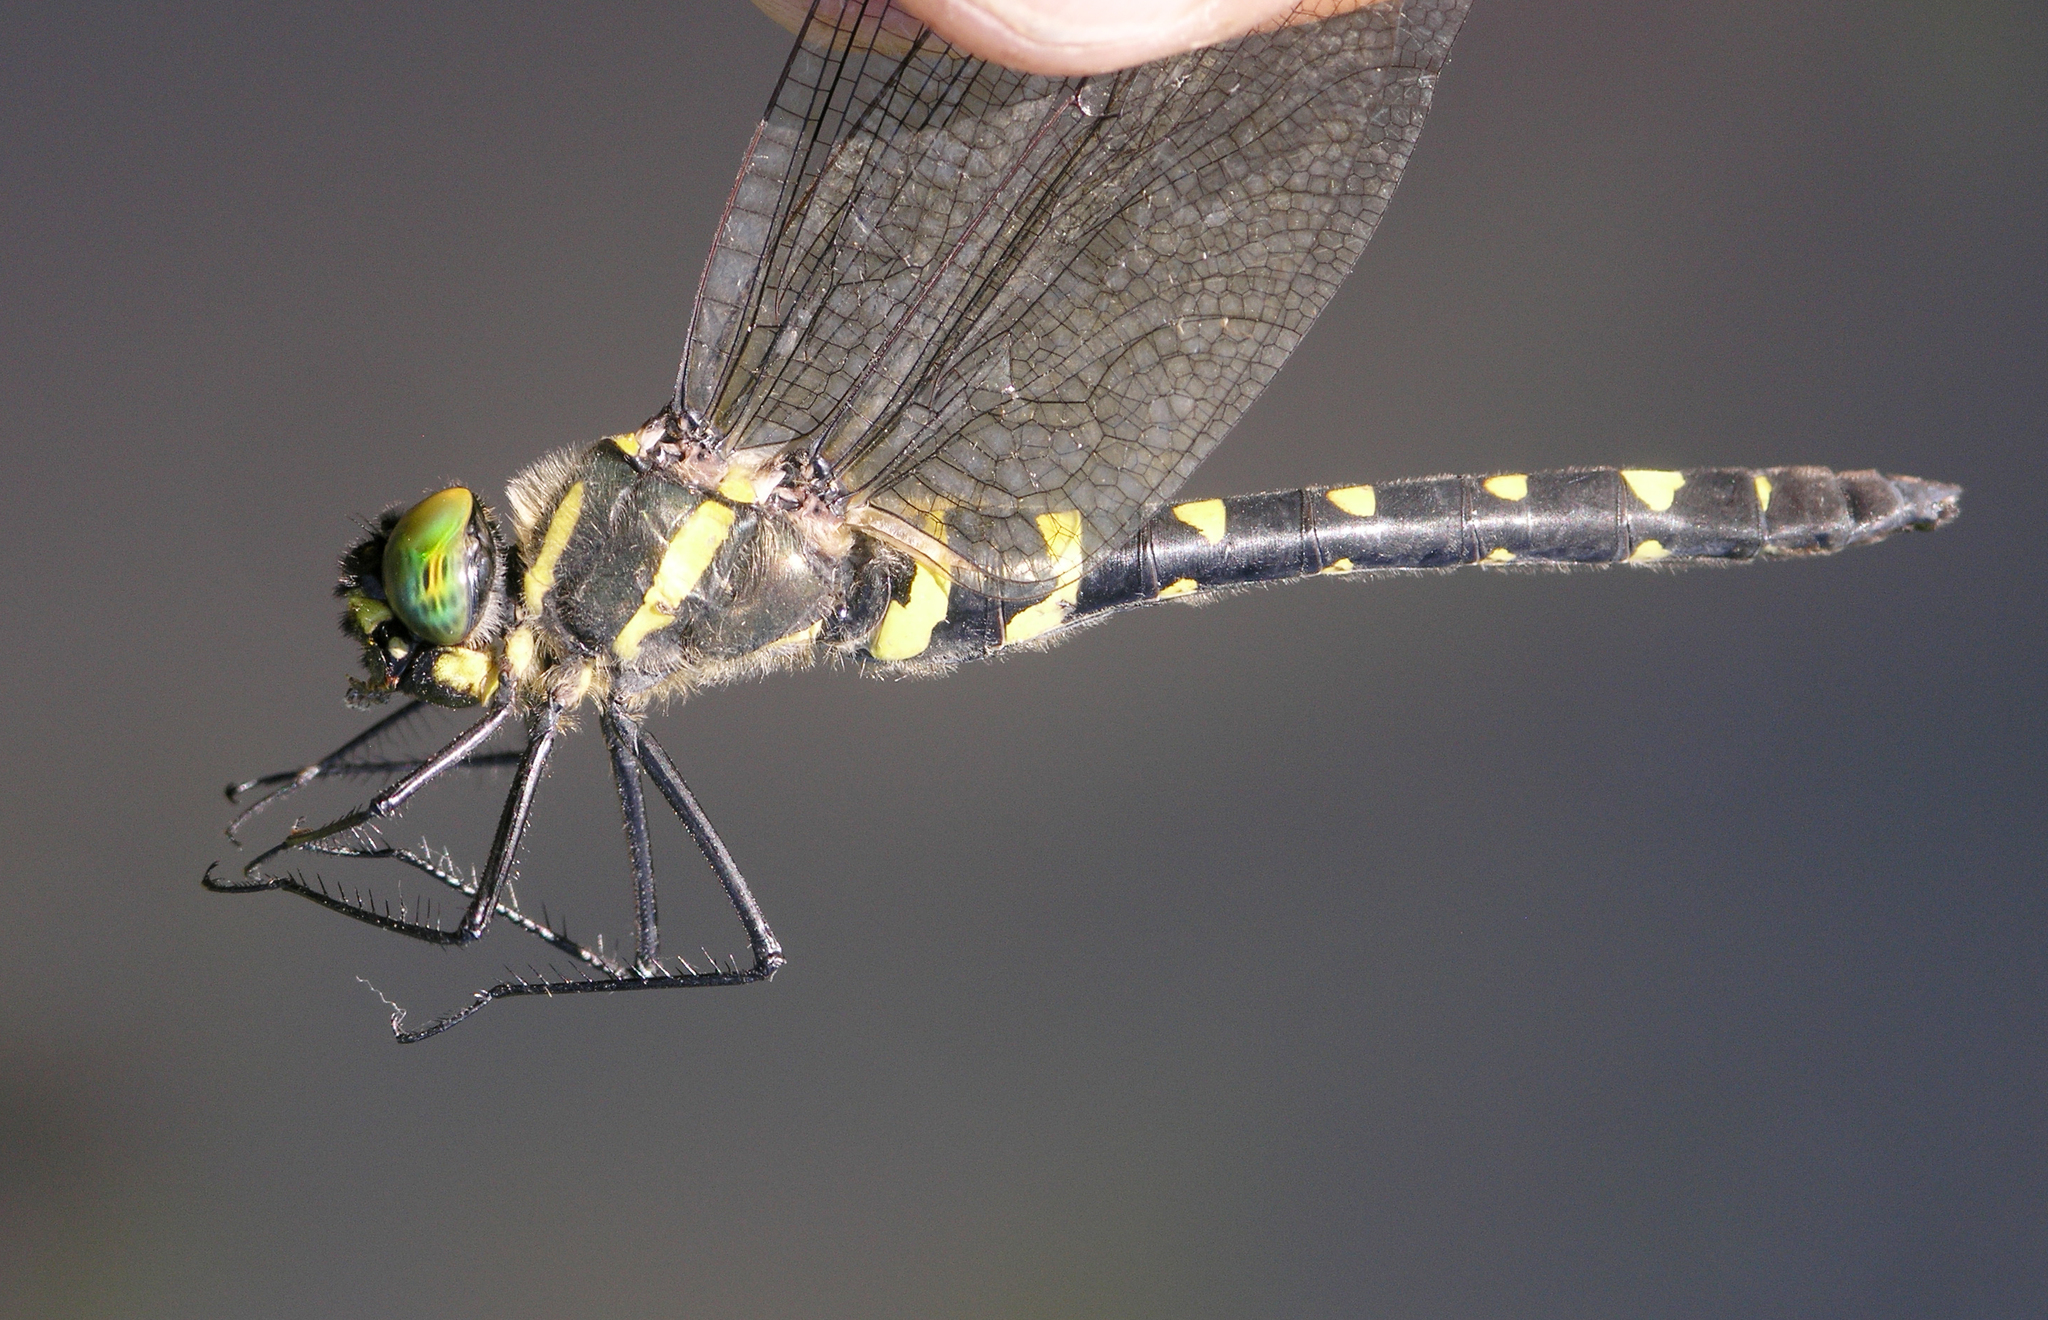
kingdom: Animalia
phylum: Arthropoda
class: Insecta
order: Odonata
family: Macromiidae
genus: Macromia
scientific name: Macromia amphigena
